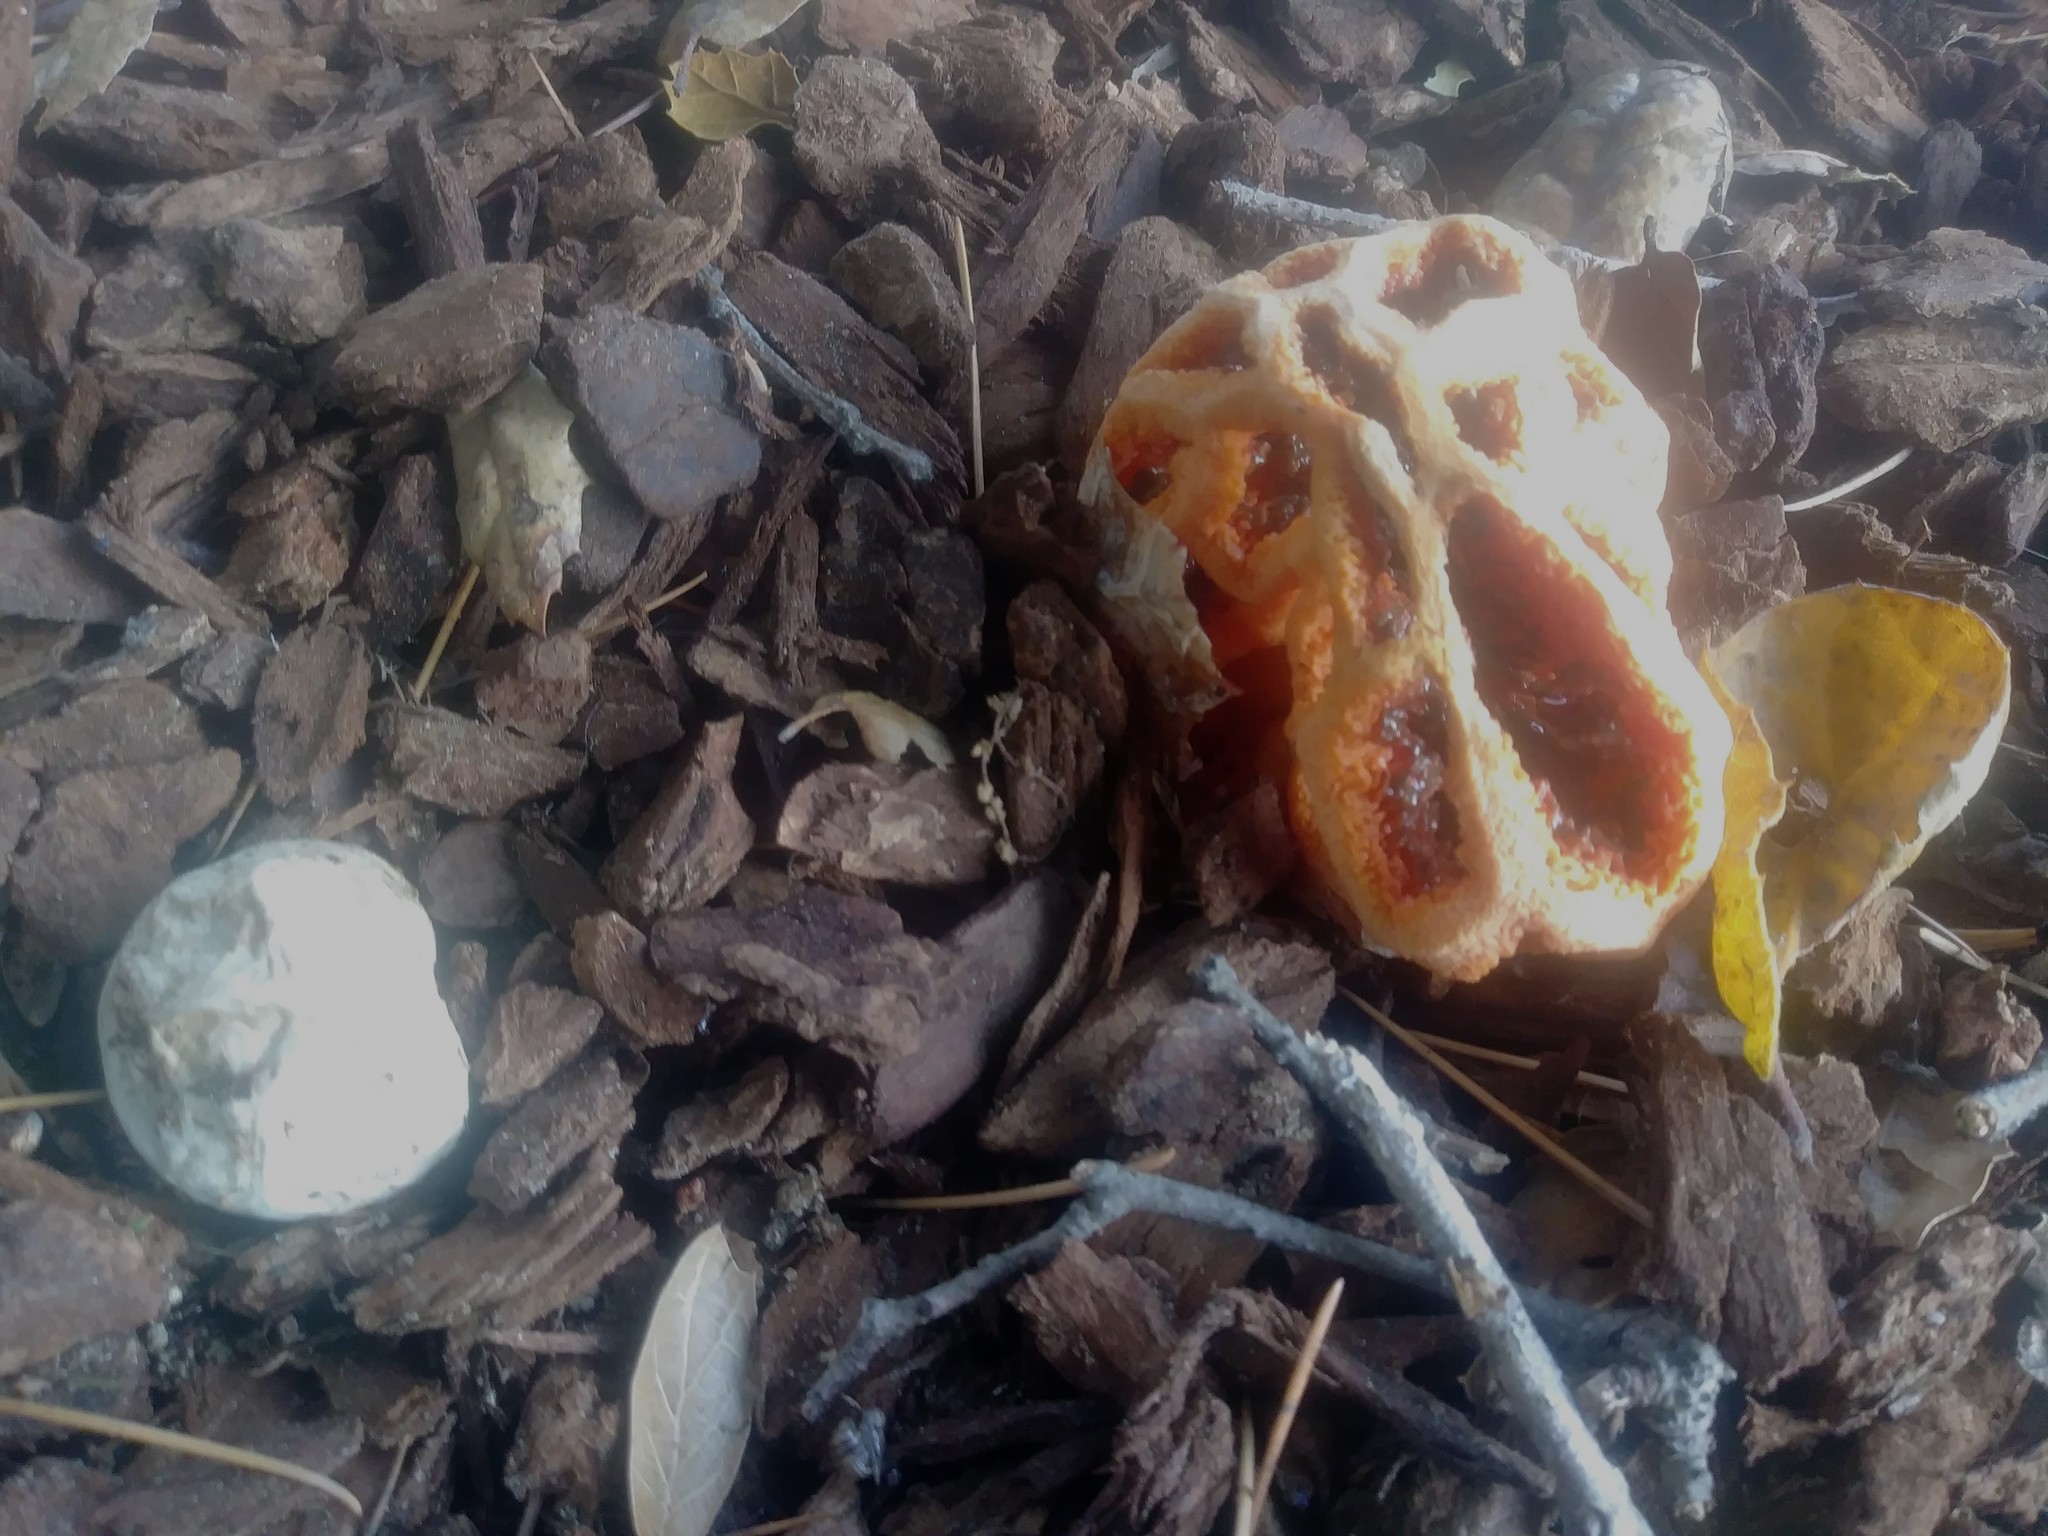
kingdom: Fungi
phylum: Basidiomycota
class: Agaricomycetes
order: Phallales
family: Phallaceae
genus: Clathrus
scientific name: Clathrus ruber
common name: Red cage
